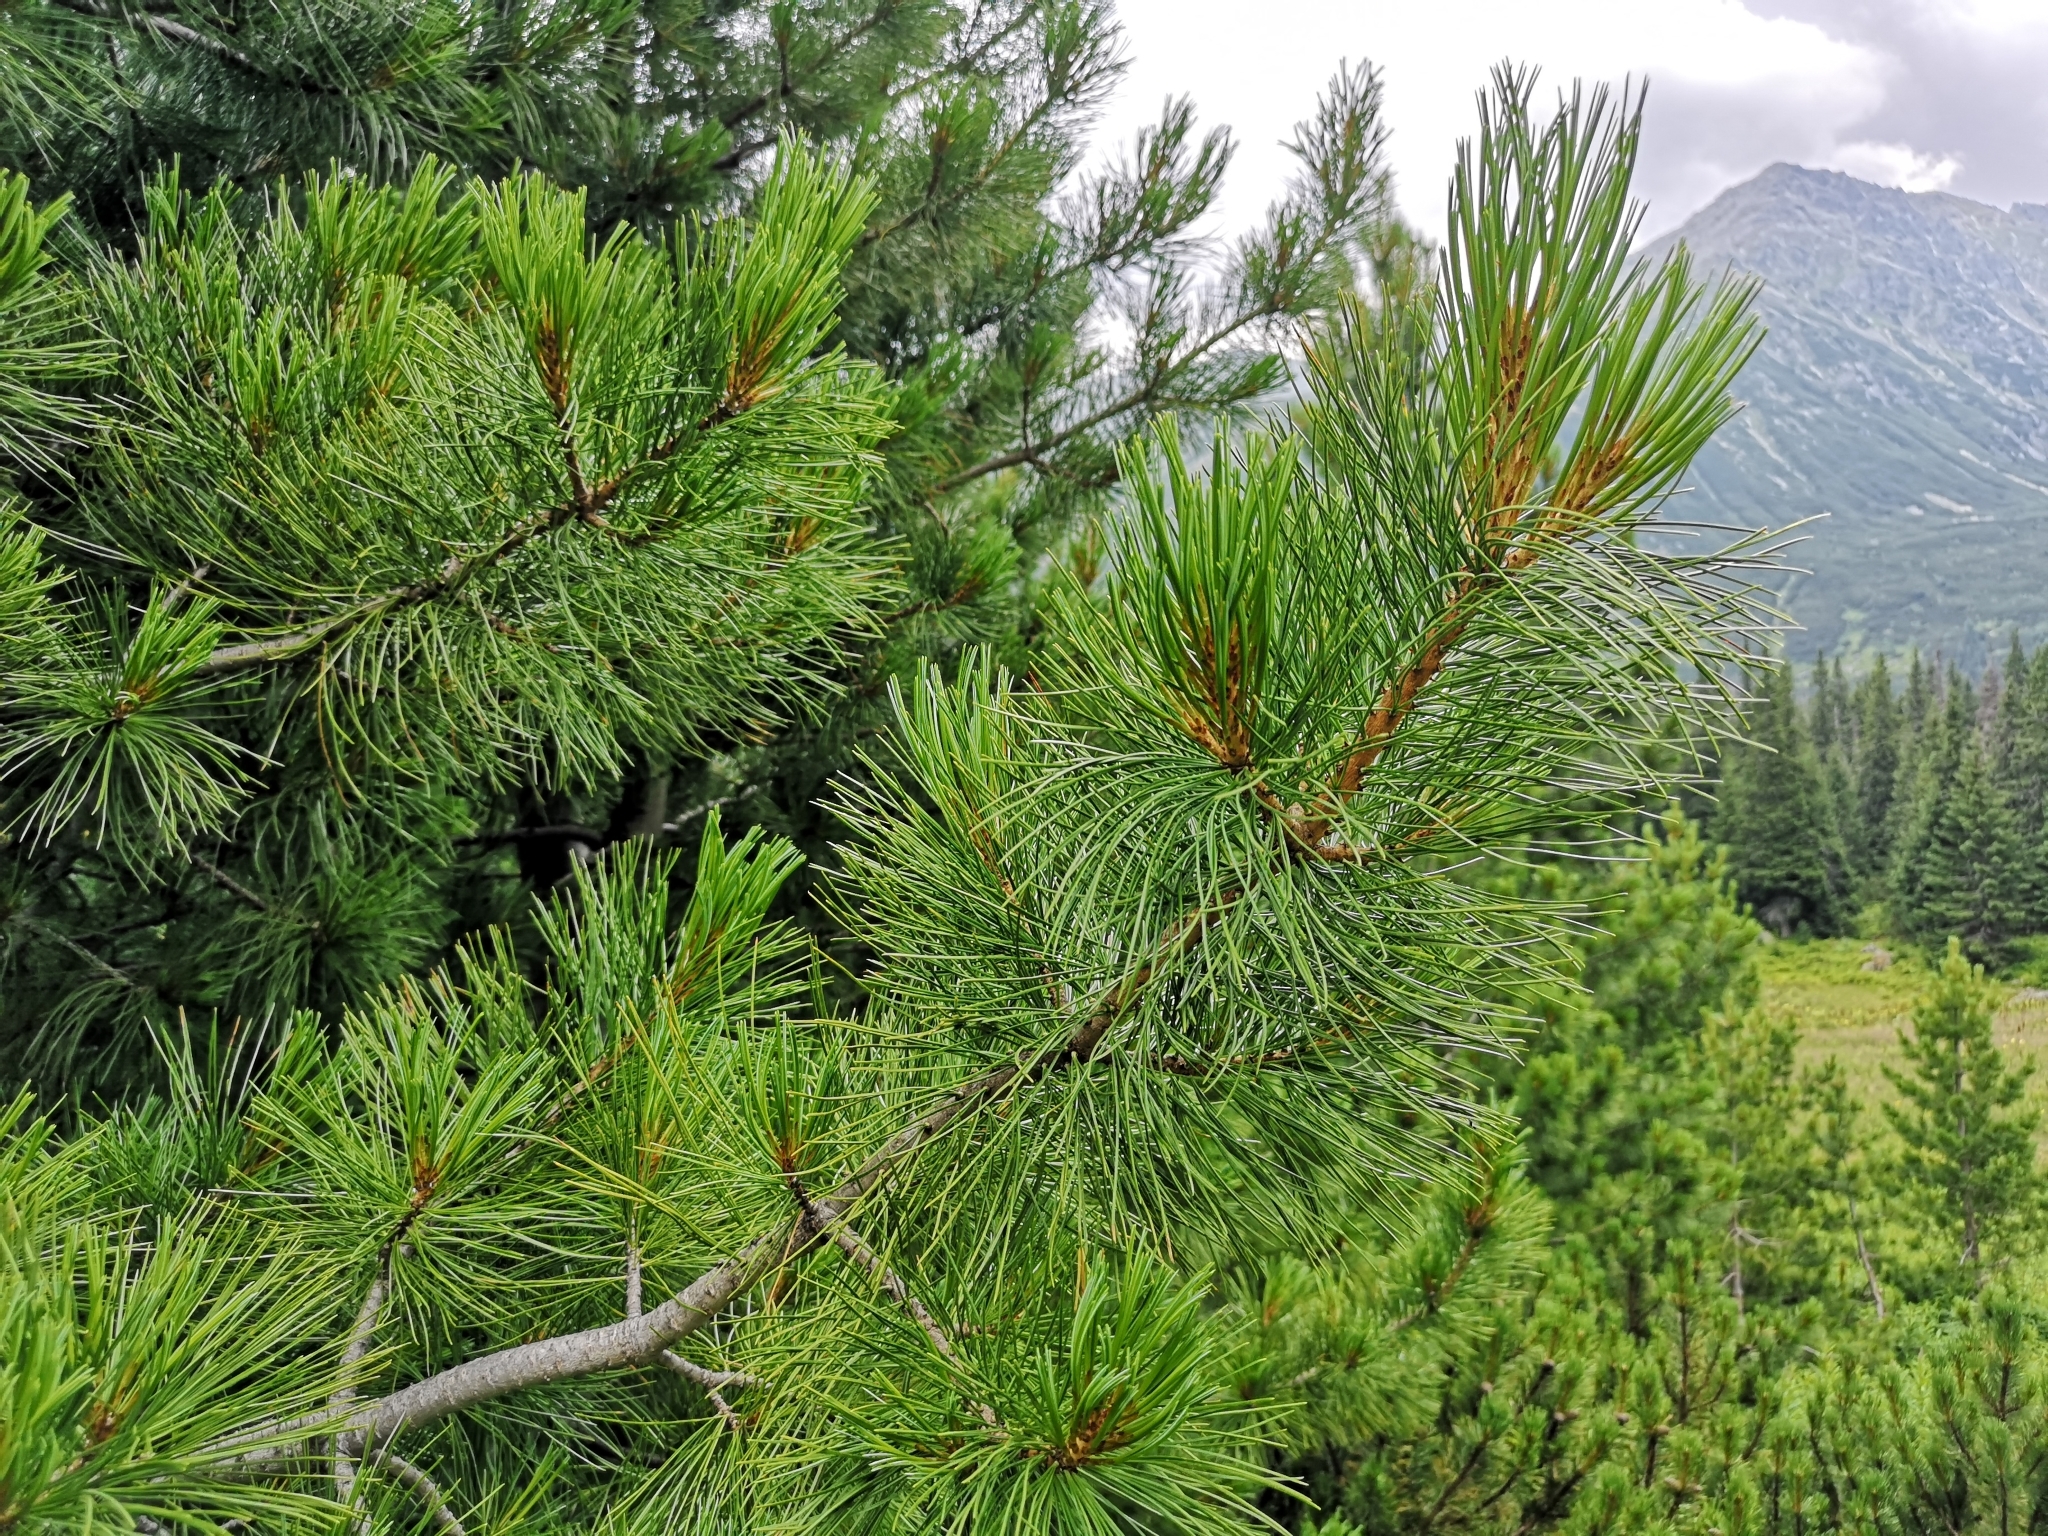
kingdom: Plantae
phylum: Tracheophyta
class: Pinopsida
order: Pinales
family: Pinaceae
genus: Pinus
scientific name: Pinus cembra
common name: Arolla pine
